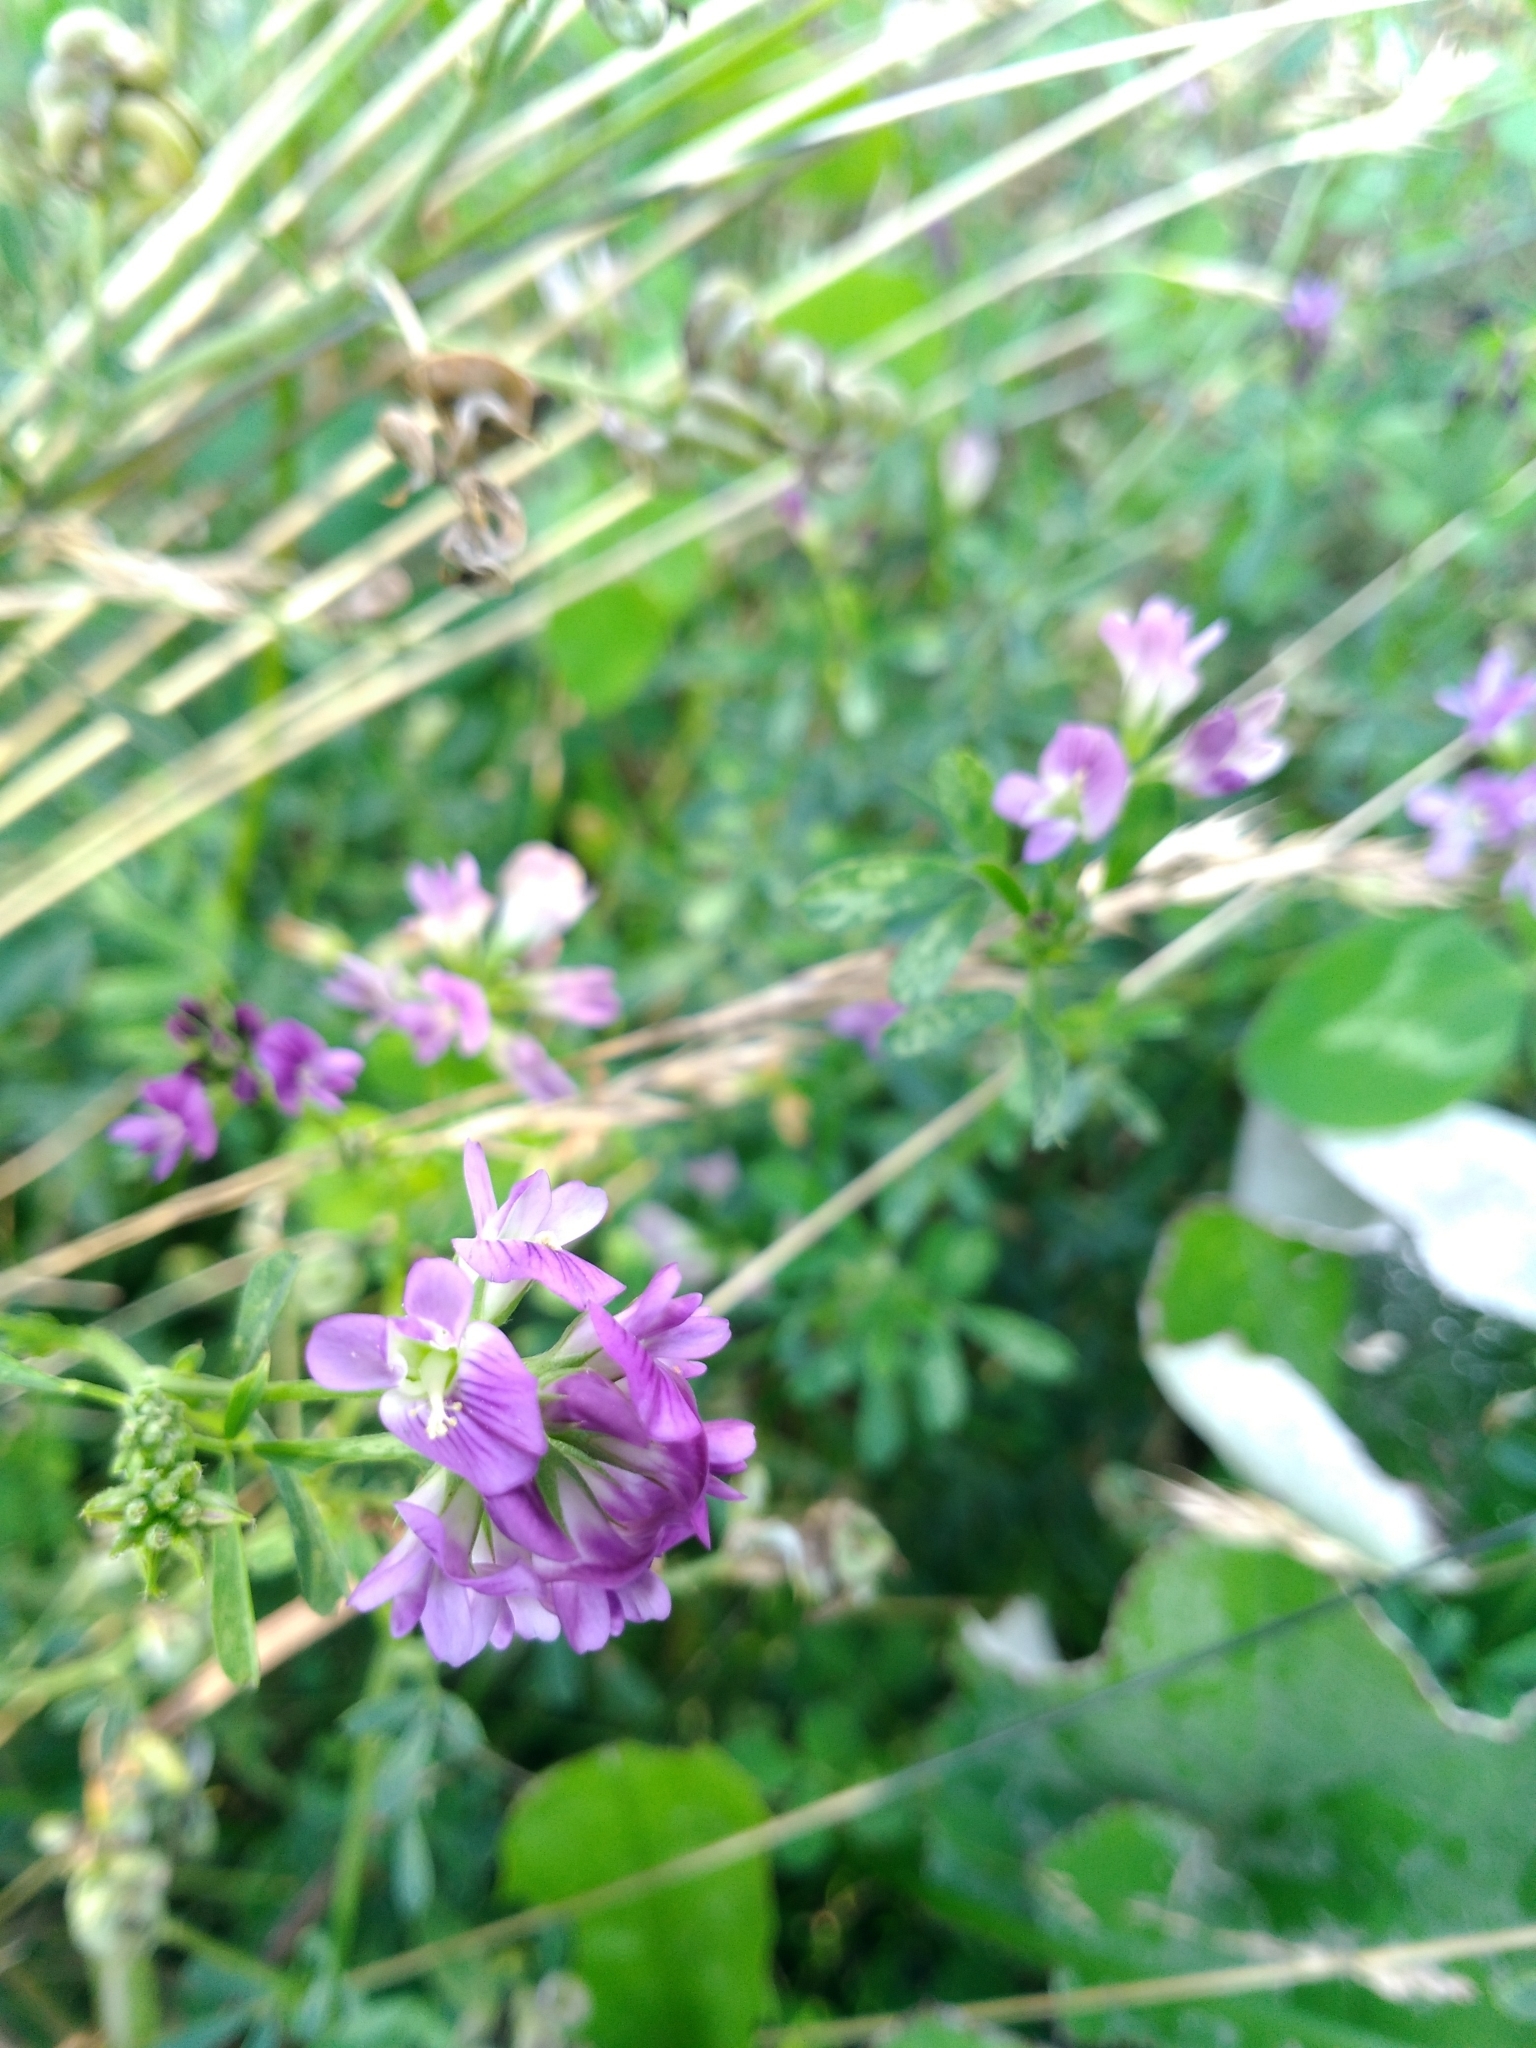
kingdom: Plantae
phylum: Tracheophyta
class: Magnoliopsida
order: Fabales
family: Fabaceae
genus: Medicago
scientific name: Medicago sativa
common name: Alfalfa
